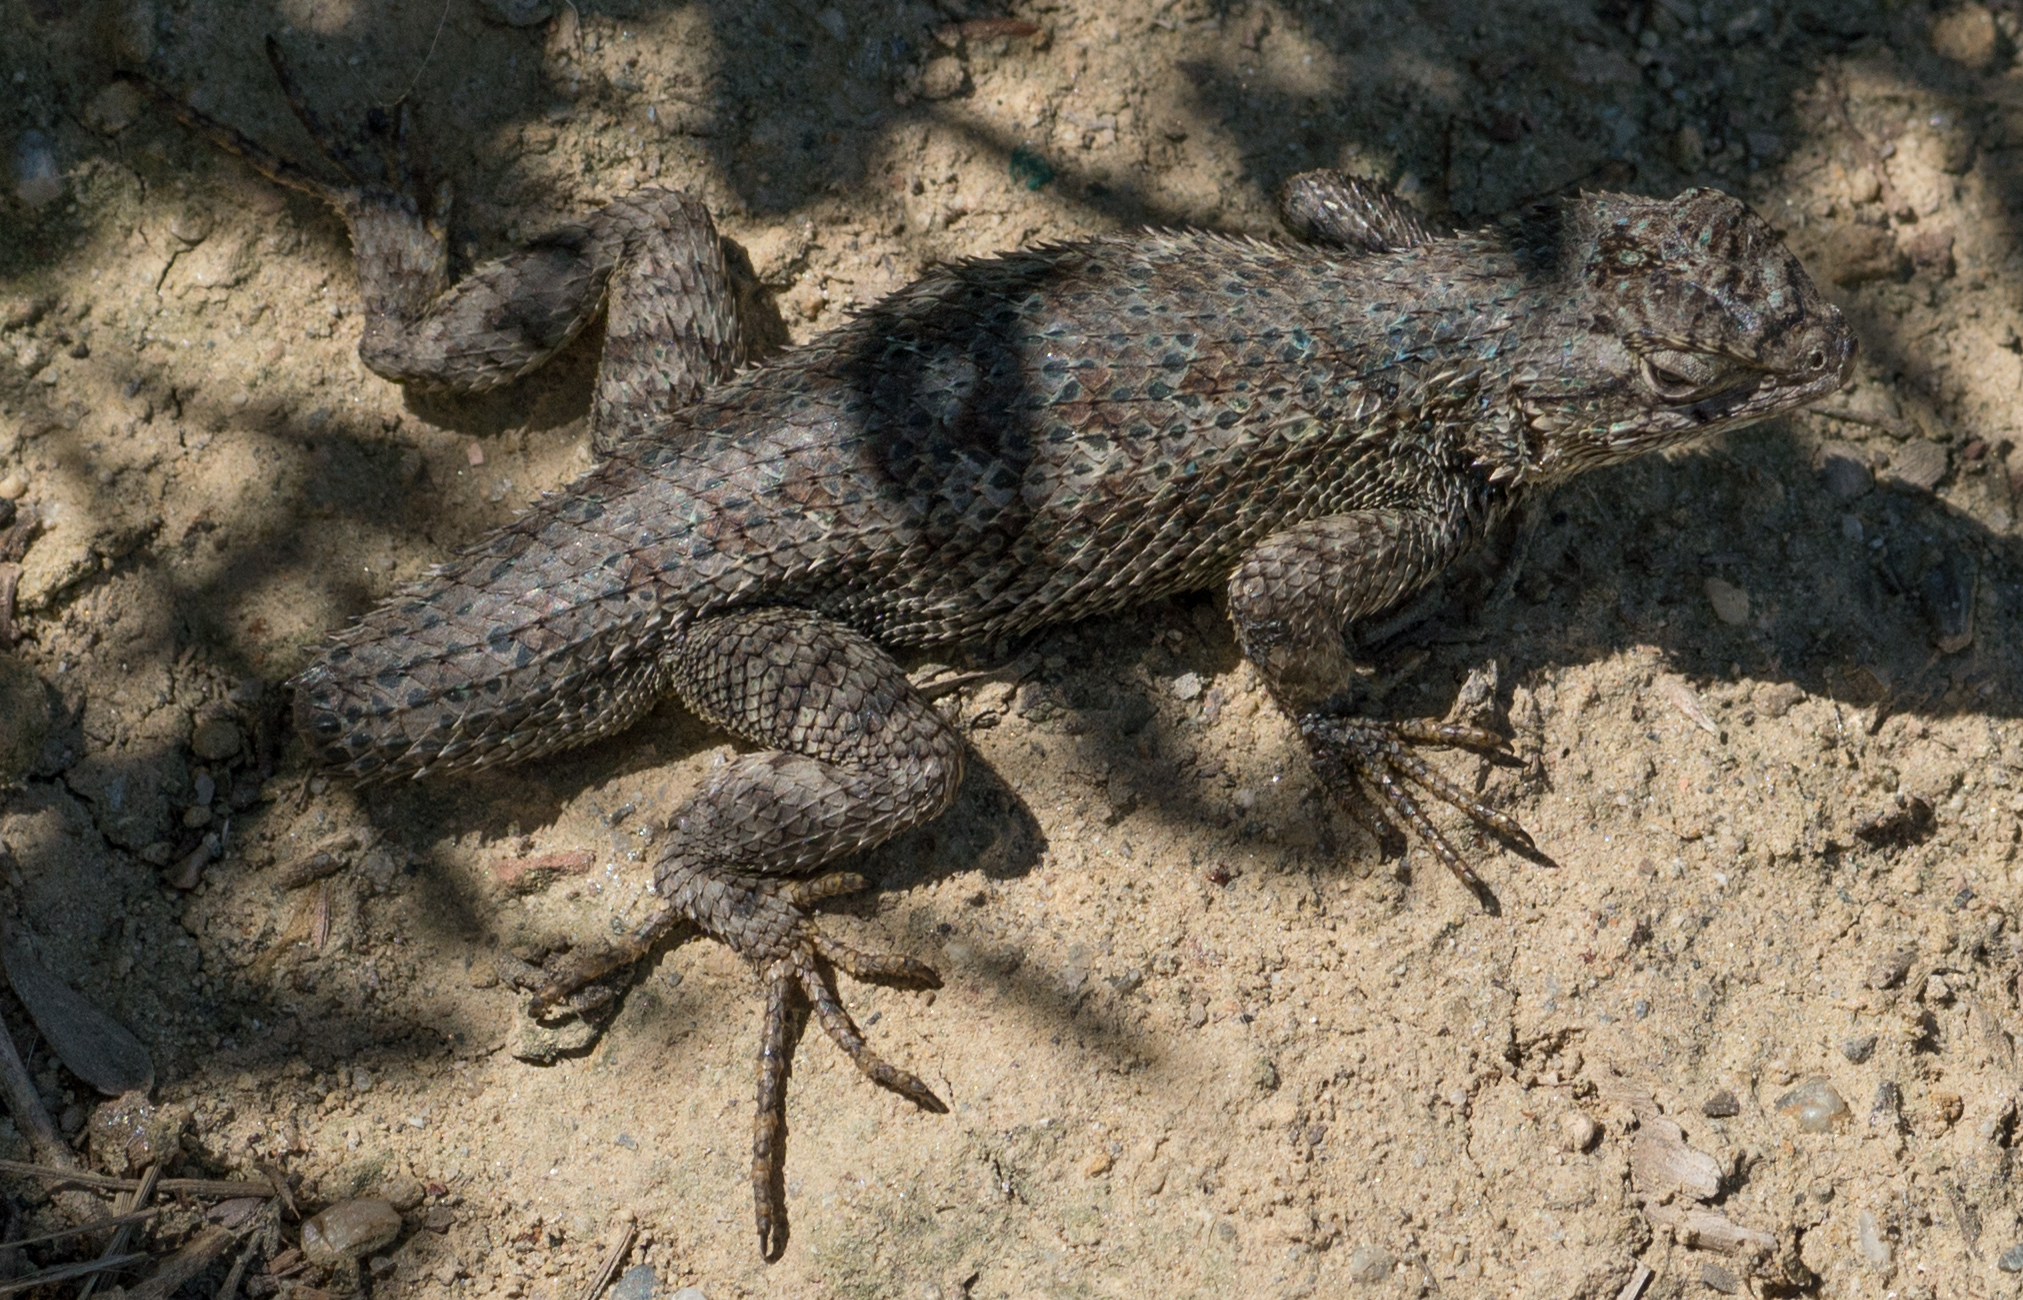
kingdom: Animalia
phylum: Chordata
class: Squamata
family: Phrynosomatidae
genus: Sceloporus
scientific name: Sceloporus occidentalis
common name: Western fence lizard
